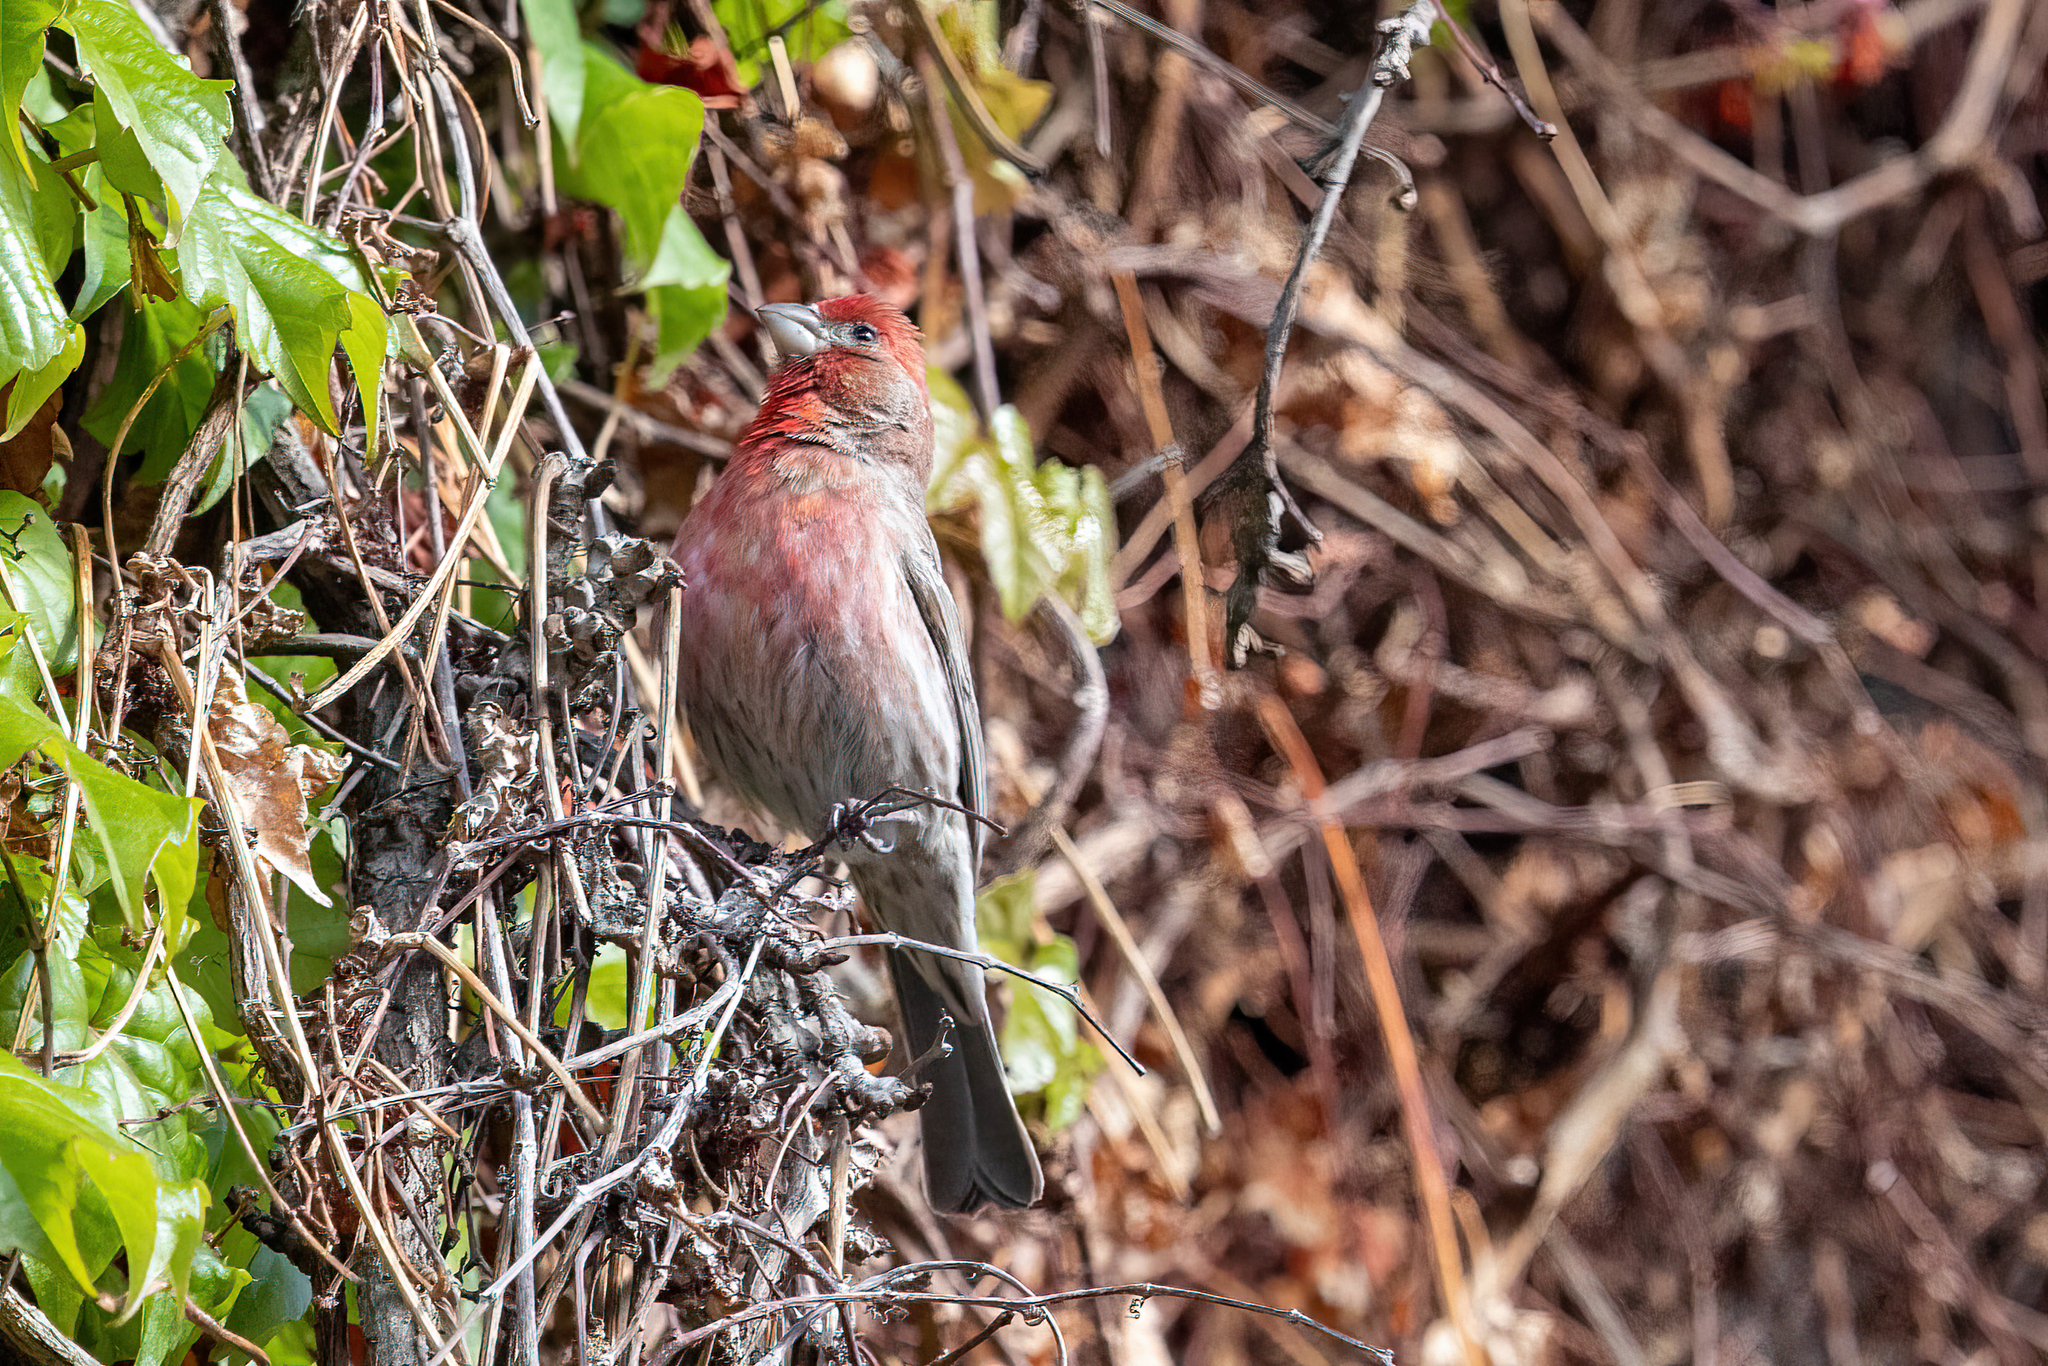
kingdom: Animalia
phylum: Chordata
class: Aves
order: Passeriformes
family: Fringillidae
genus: Haemorhous
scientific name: Haemorhous mexicanus
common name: House finch
